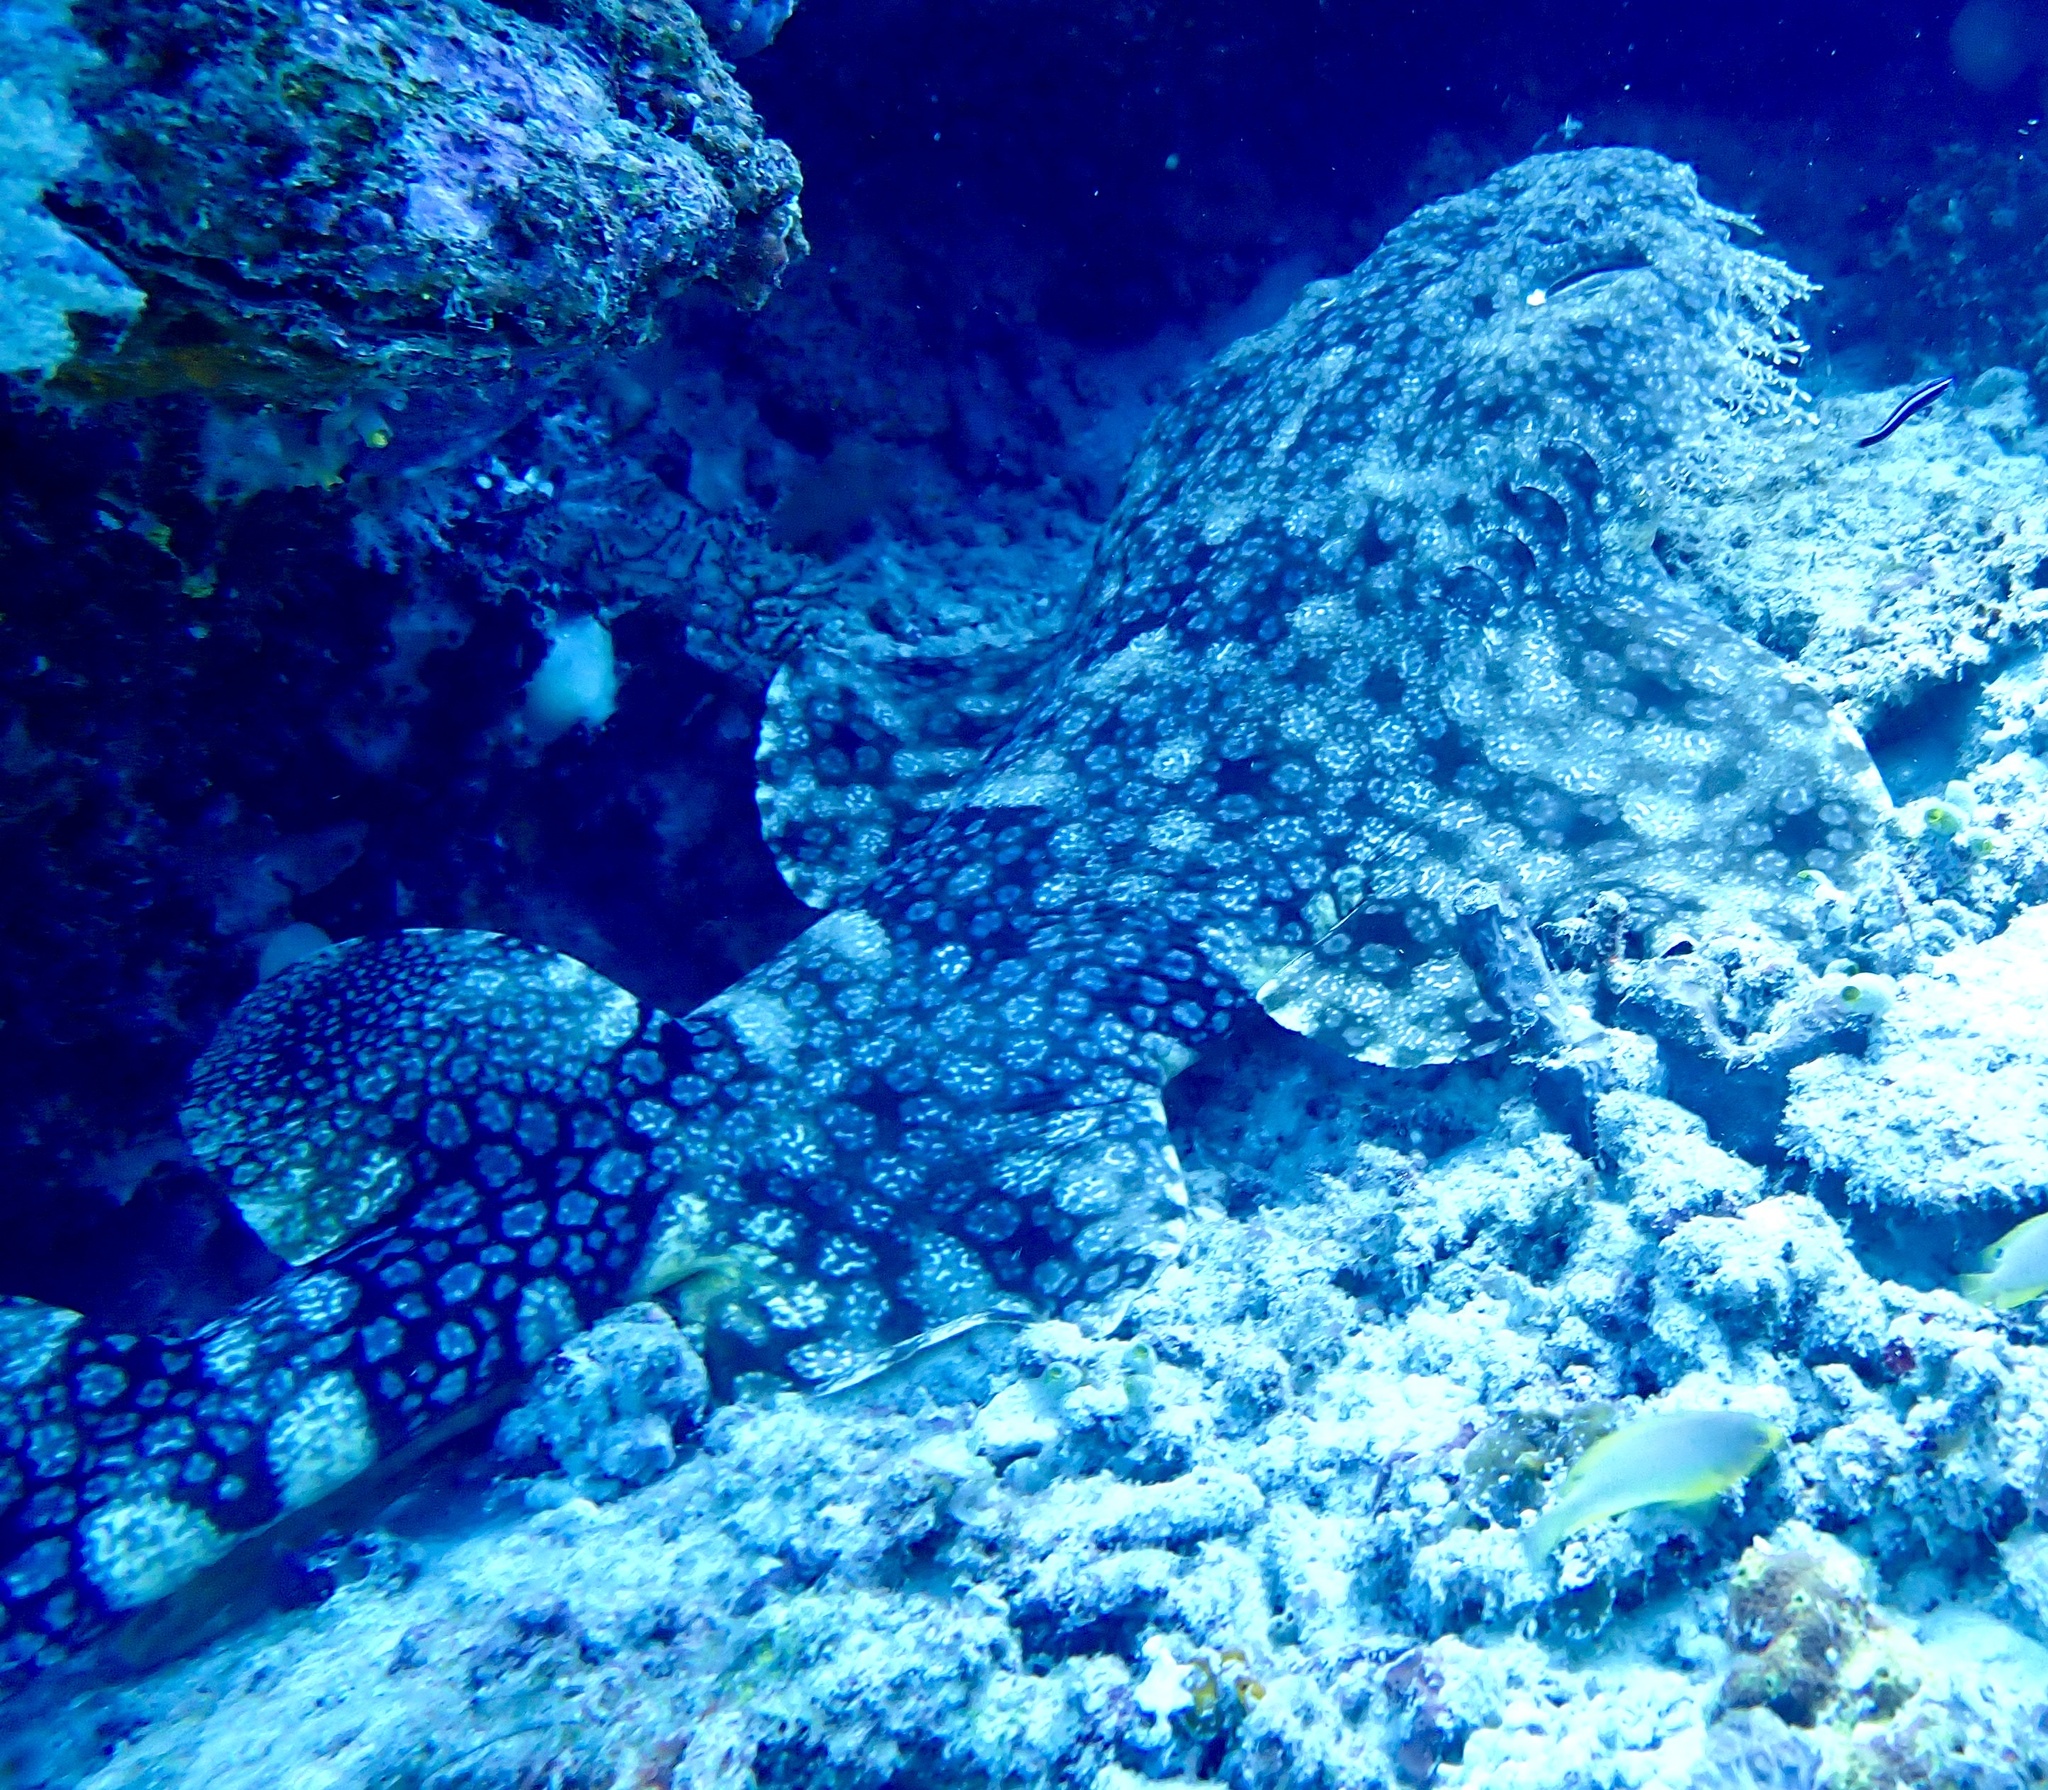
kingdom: Animalia
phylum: Chordata
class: Elasmobranchii
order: Orectolobiformes
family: Orectolobidae
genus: Eucrossorhinus
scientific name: Eucrossorhinus dasypogon
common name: Tasselled wobbegong
